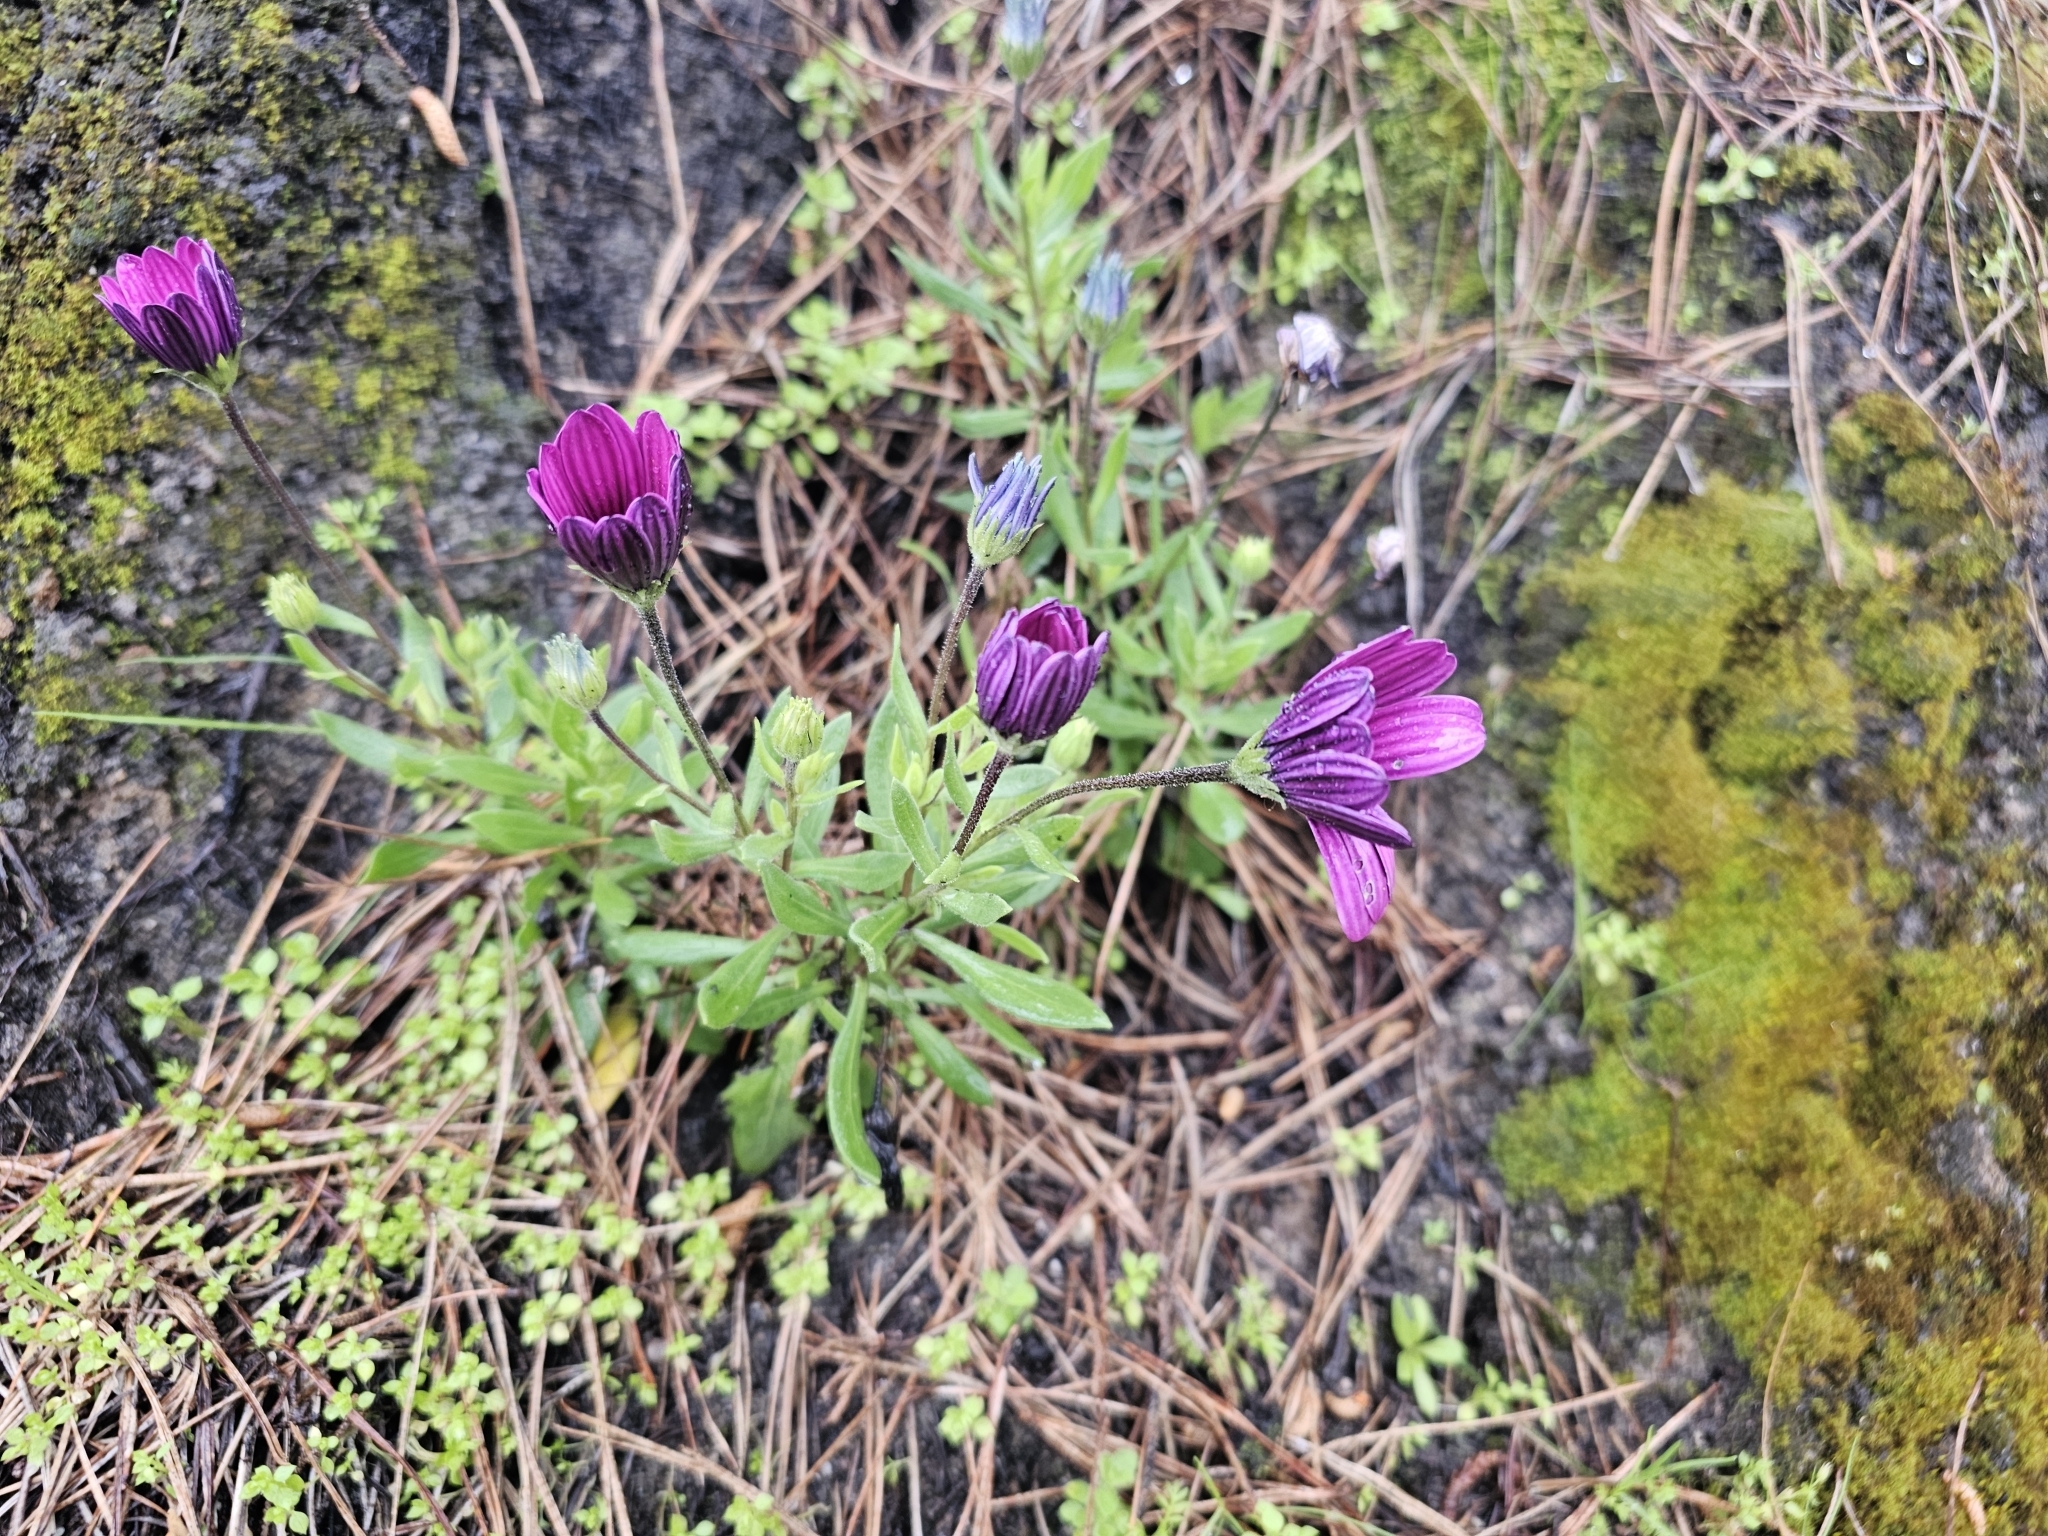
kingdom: Plantae
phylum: Tracheophyta
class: Magnoliopsida
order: Asterales
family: Asteraceae
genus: Dimorphotheca
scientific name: Dimorphotheca
